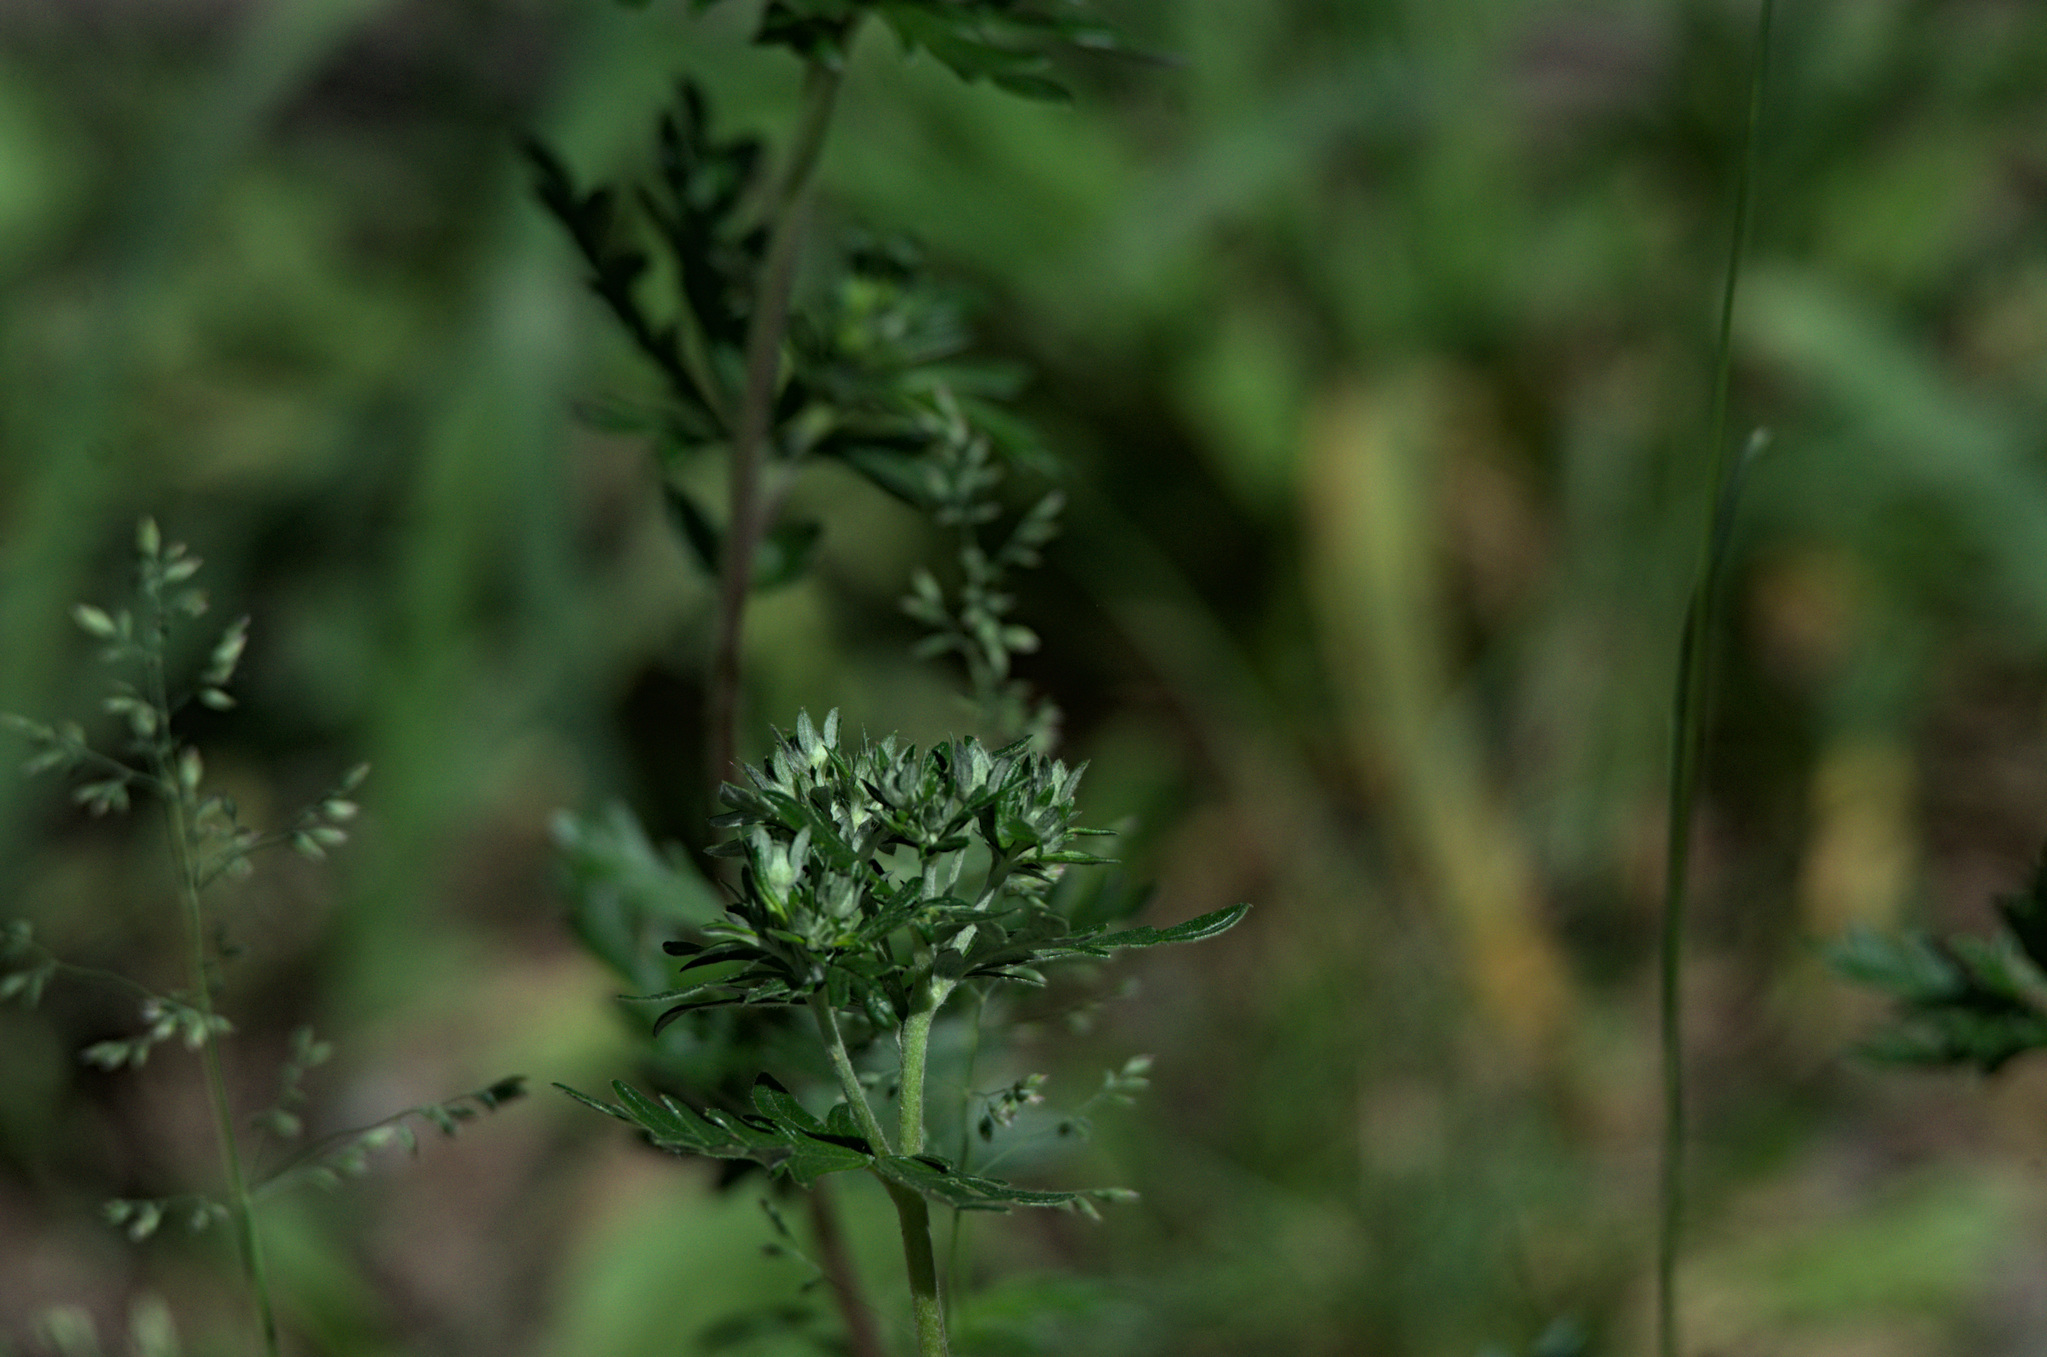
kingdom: Plantae
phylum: Tracheophyta
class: Magnoliopsida
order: Rosales
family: Rosaceae
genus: Potentilla
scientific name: Potentilla argentea
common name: Hoary cinquefoil
